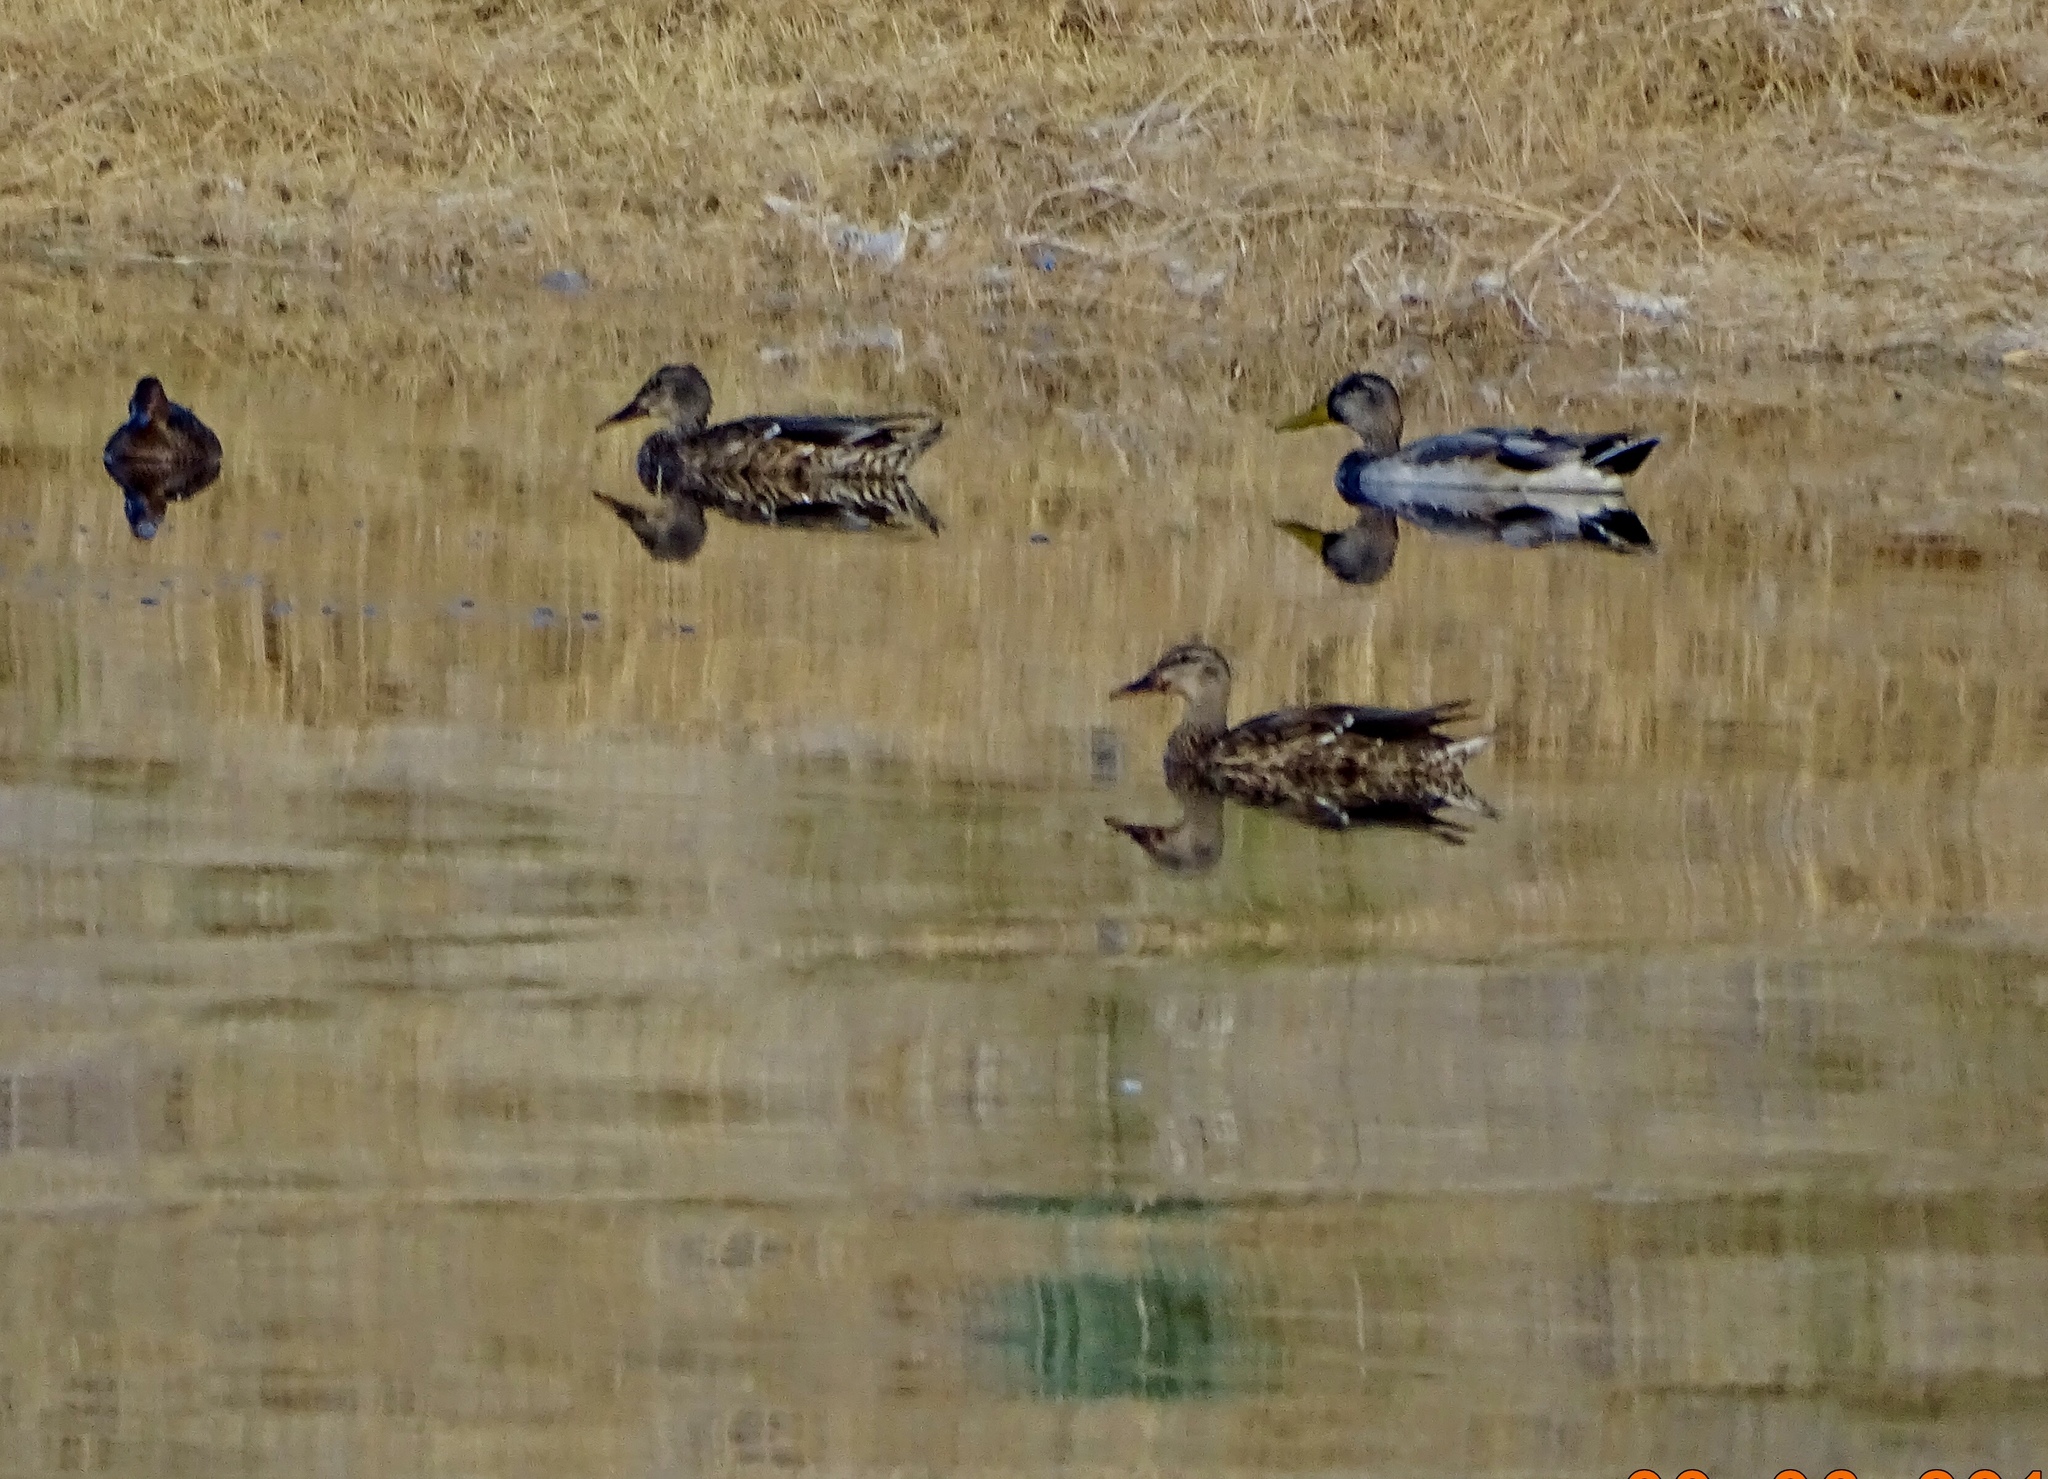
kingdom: Animalia
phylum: Chordata
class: Aves
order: Anseriformes
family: Anatidae
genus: Anas
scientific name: Anas platyrhynchos
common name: Mallard
